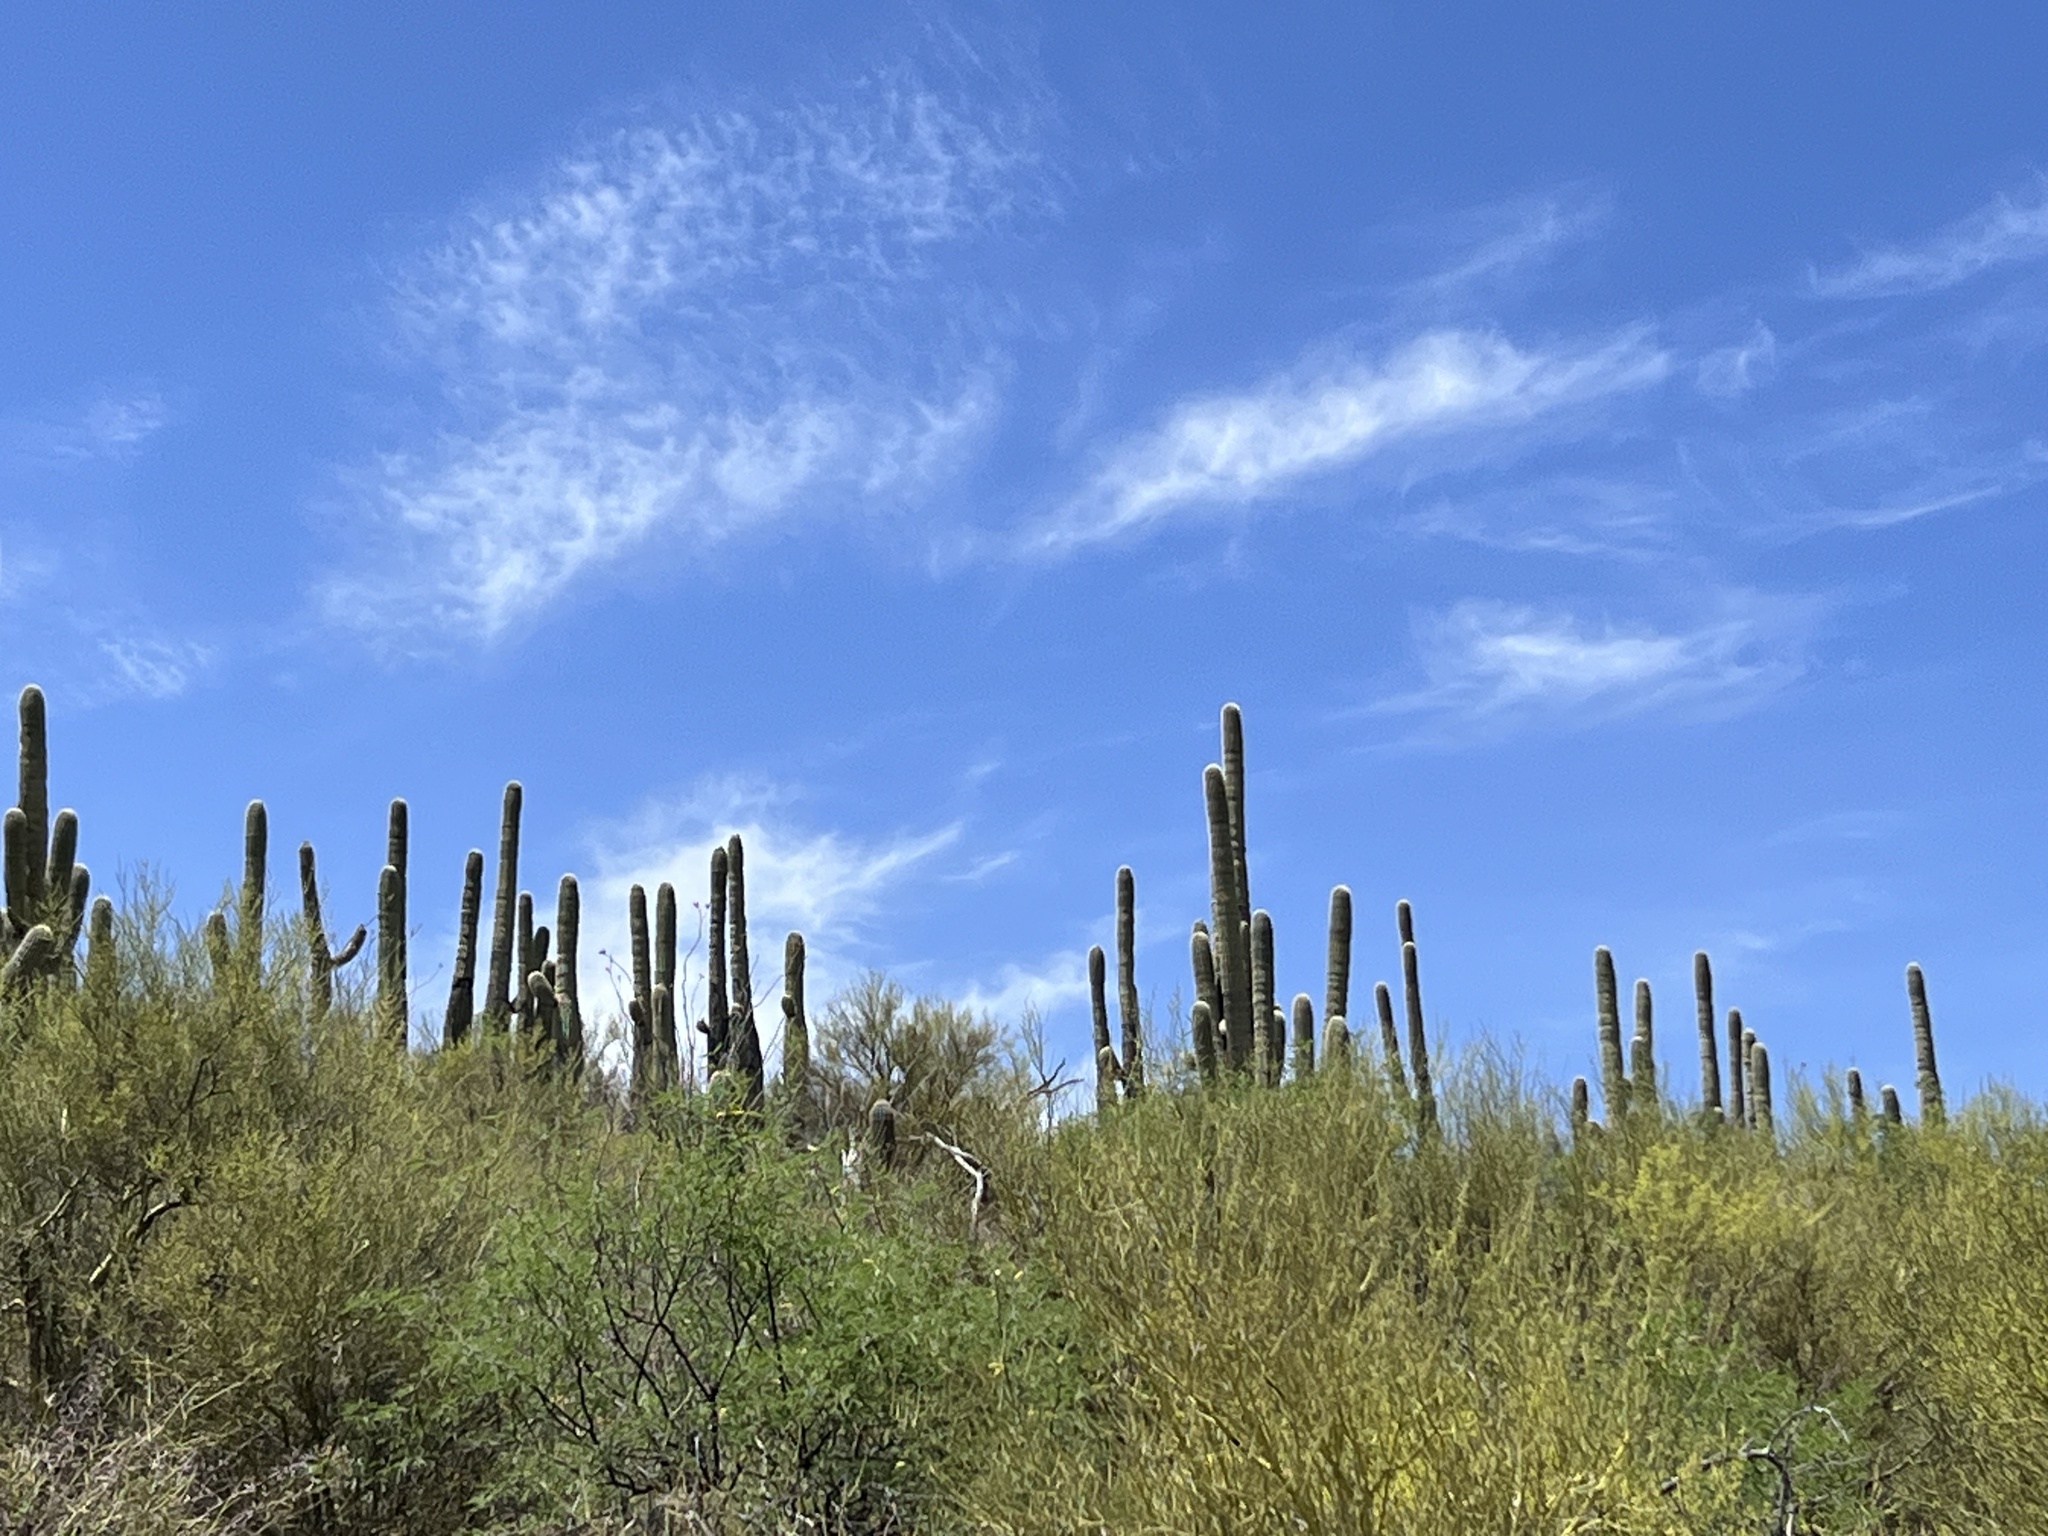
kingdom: Plantae
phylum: Tracheophyta
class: Magnoliopsida
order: Caryophyllales
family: Cactaceae
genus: Carnegiea
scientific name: Carnegiea gigantea
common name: Saguaro
